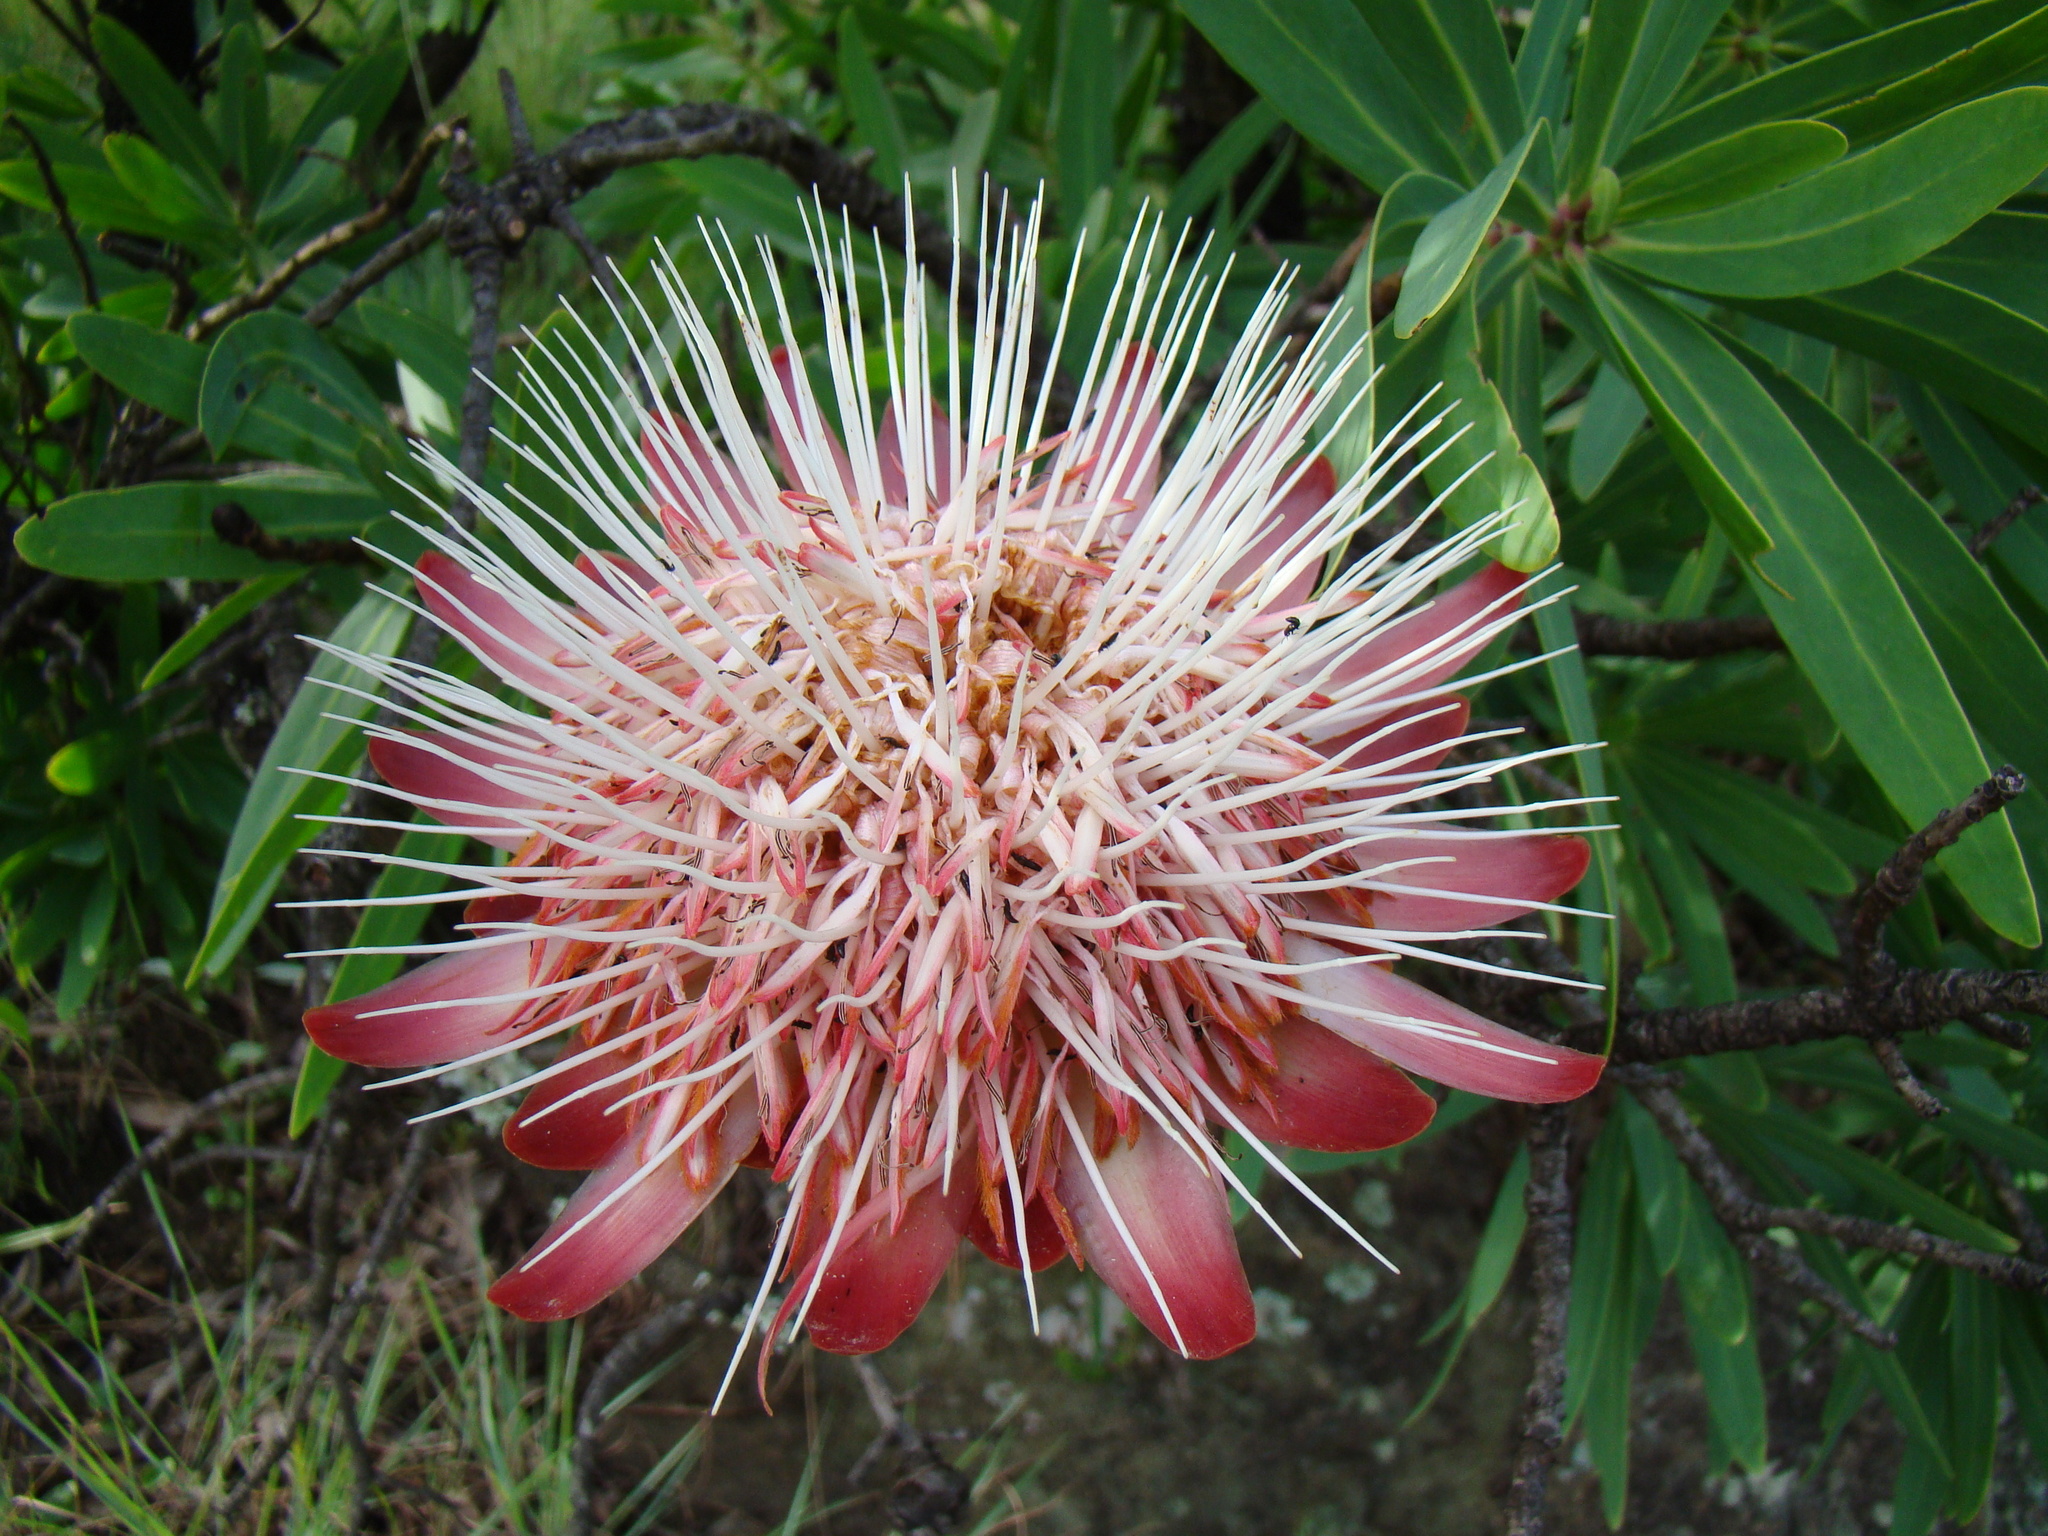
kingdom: Plantae
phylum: Tracheophyta
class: Magnoliopsida
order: Proteales
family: Proteaceae
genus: Protea
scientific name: Protea caffra
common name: Common sugarbush
